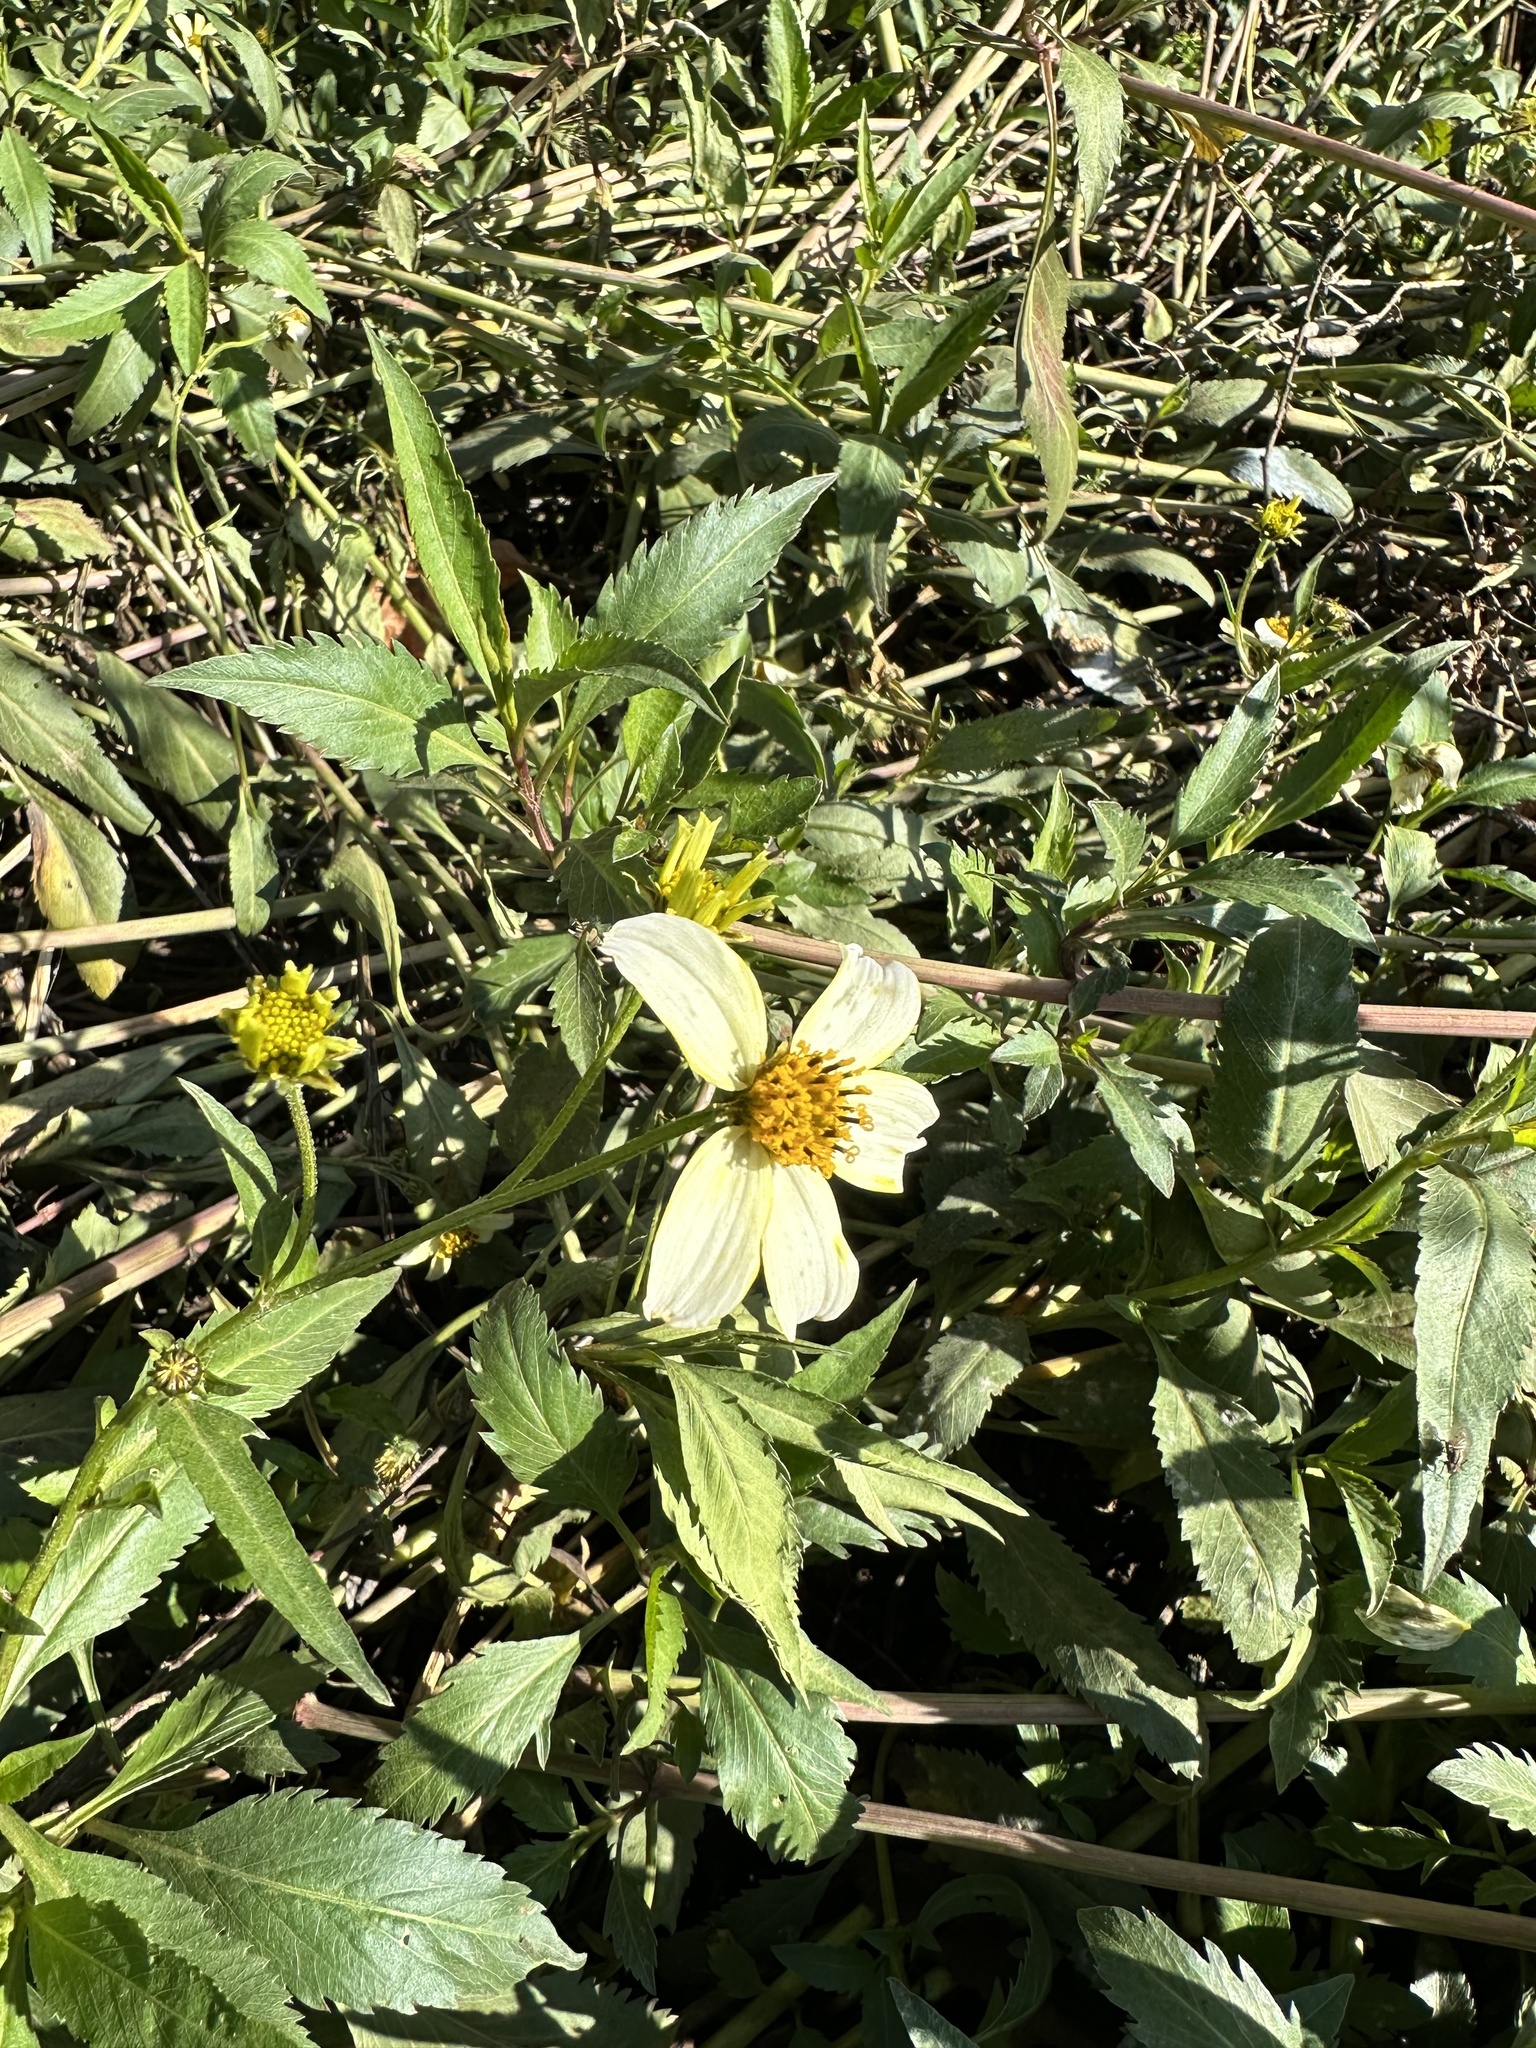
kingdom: Plantae
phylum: Tracheophyta
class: Magnoliopsida
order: Asterales
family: Asteraceae
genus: Bidens
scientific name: Bidens aurea
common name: Arizona beggar-ticks
